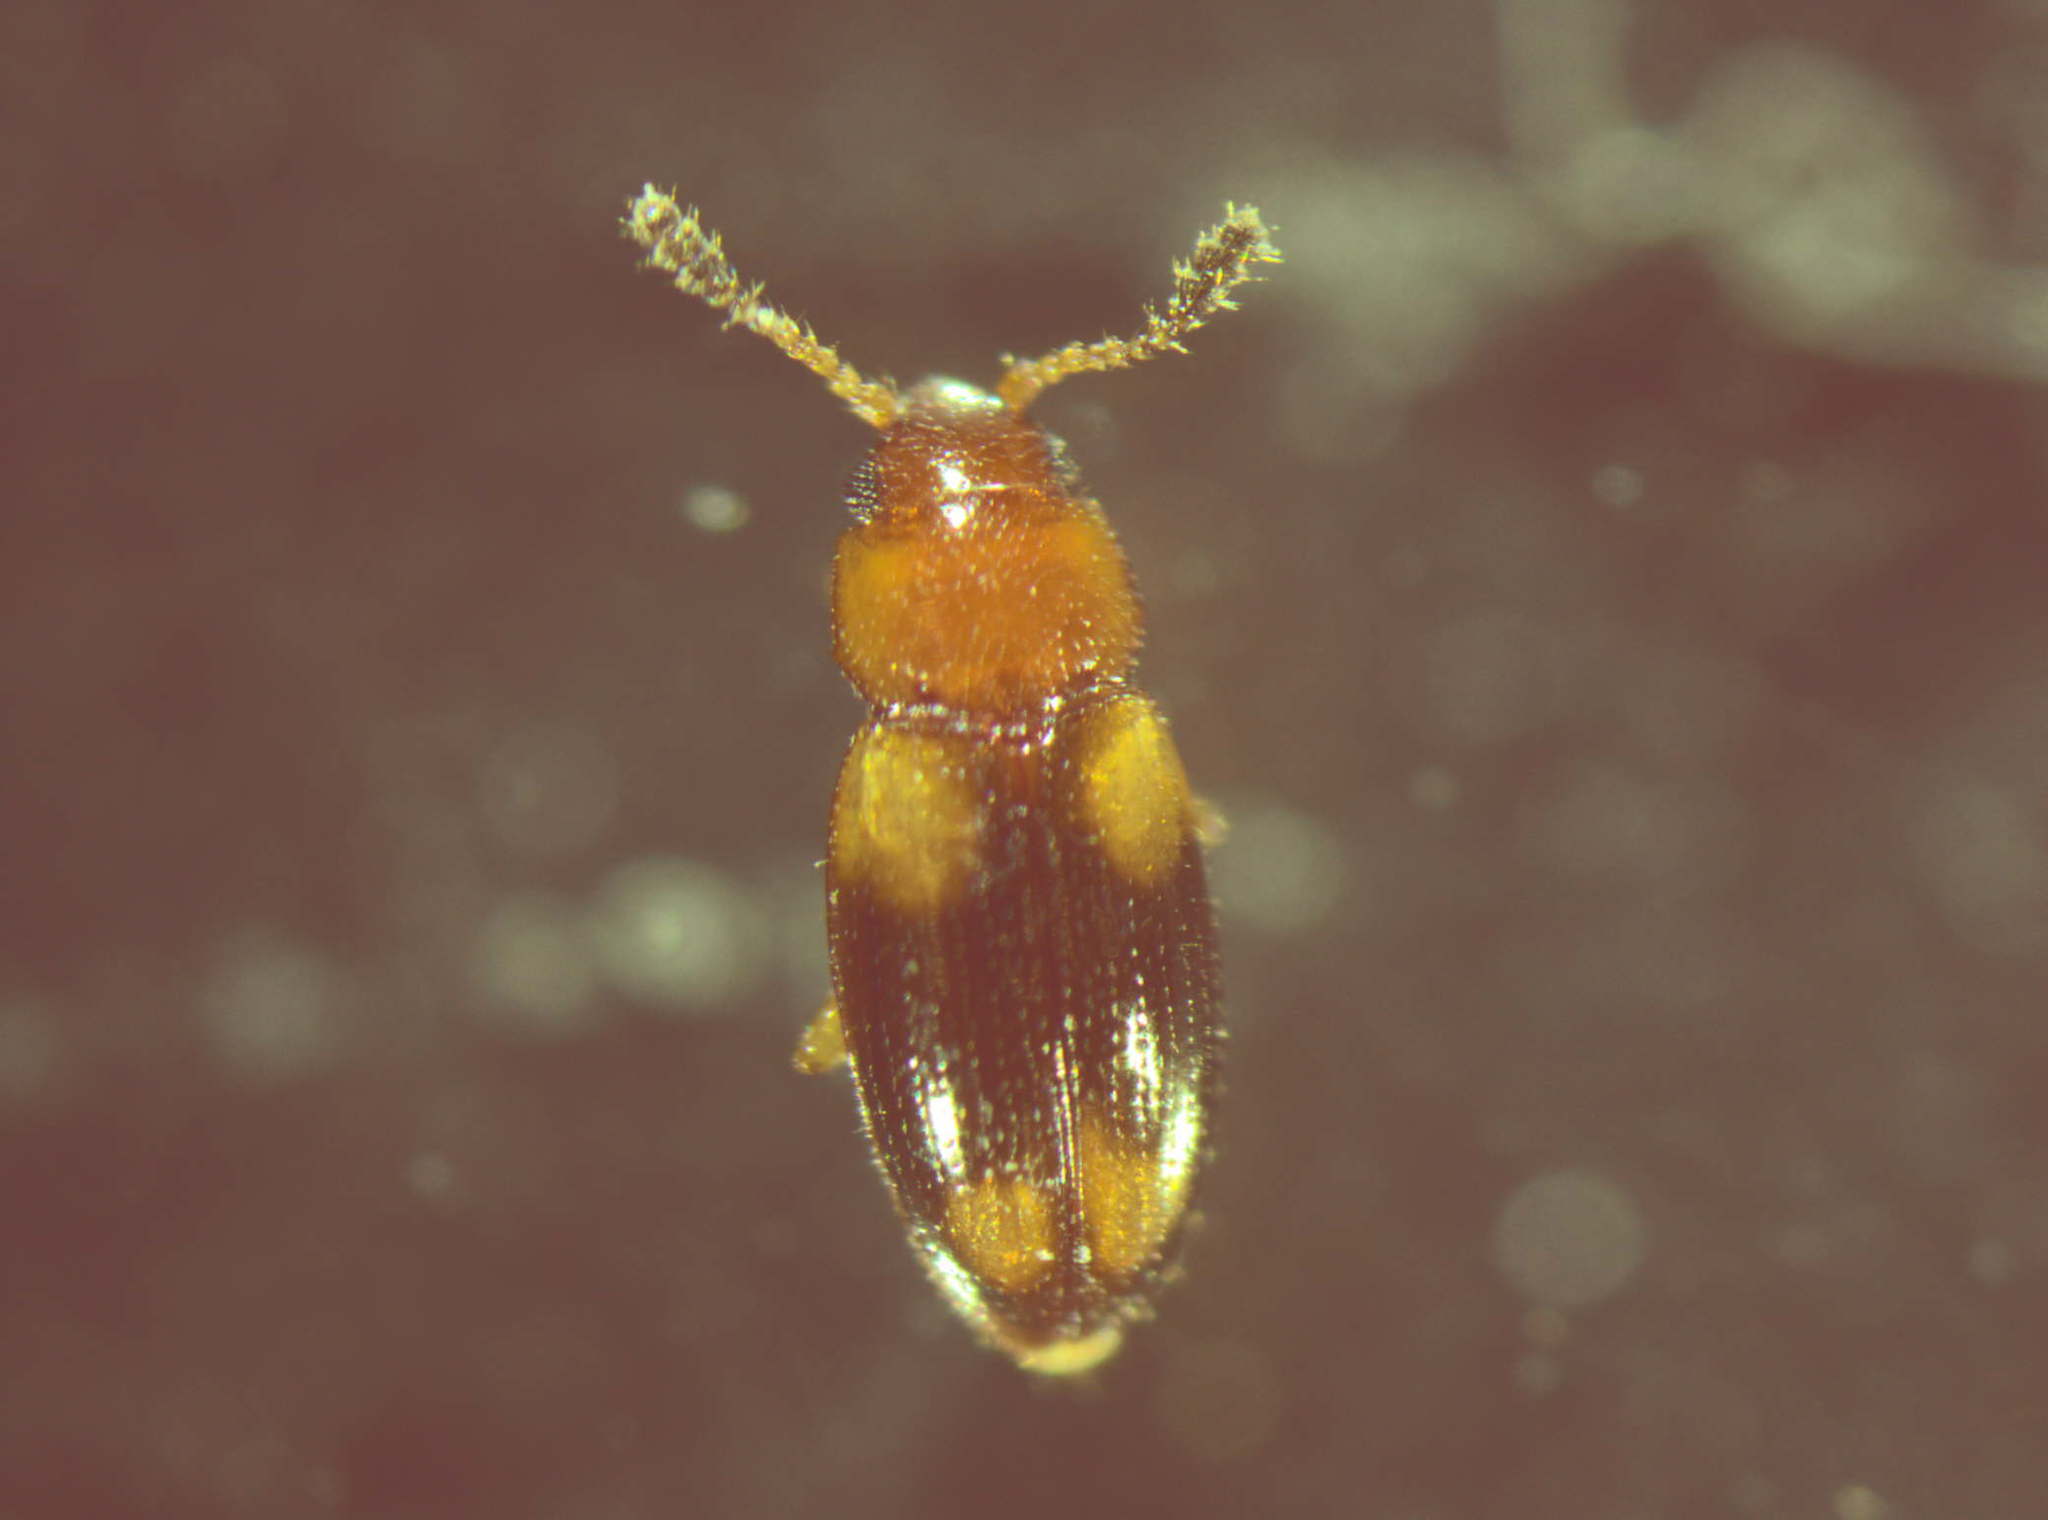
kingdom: Animalia
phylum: Arthropoda
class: Insecta
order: Coleoptera
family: Erotylidae
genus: Loberus
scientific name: Loberus nitens
